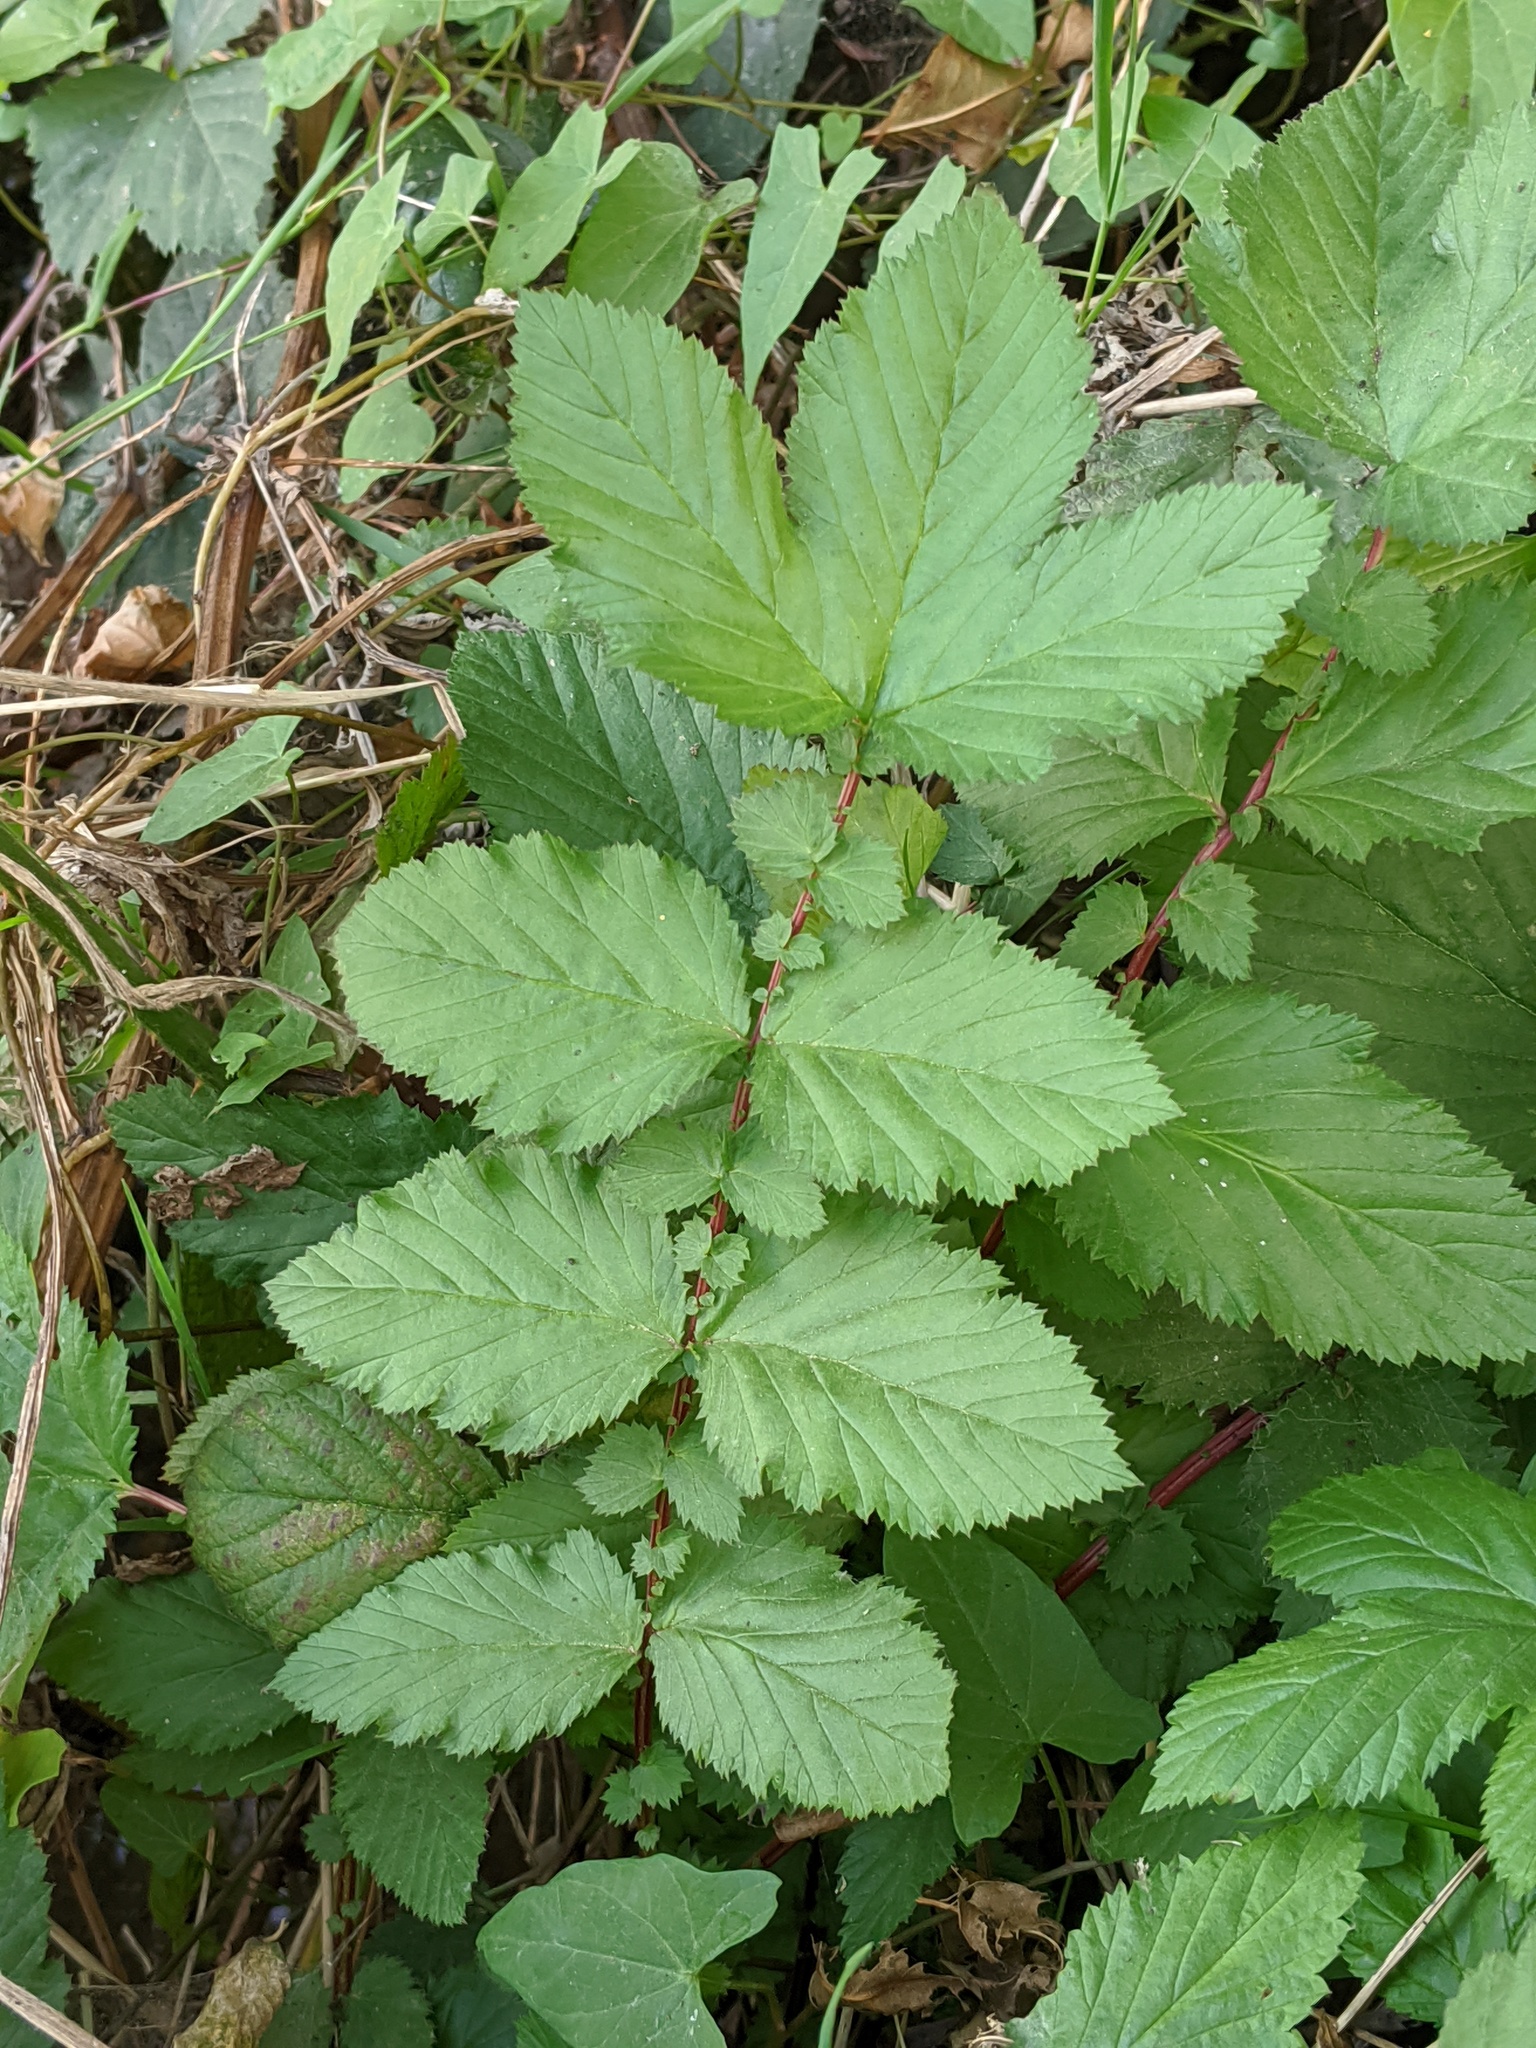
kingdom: Plantae
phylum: Tracheophyta
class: Magnoliopsida
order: Rosales
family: Rosaceae
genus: Filipendula
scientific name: Filipendula ulmaria
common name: Meadowsweet
